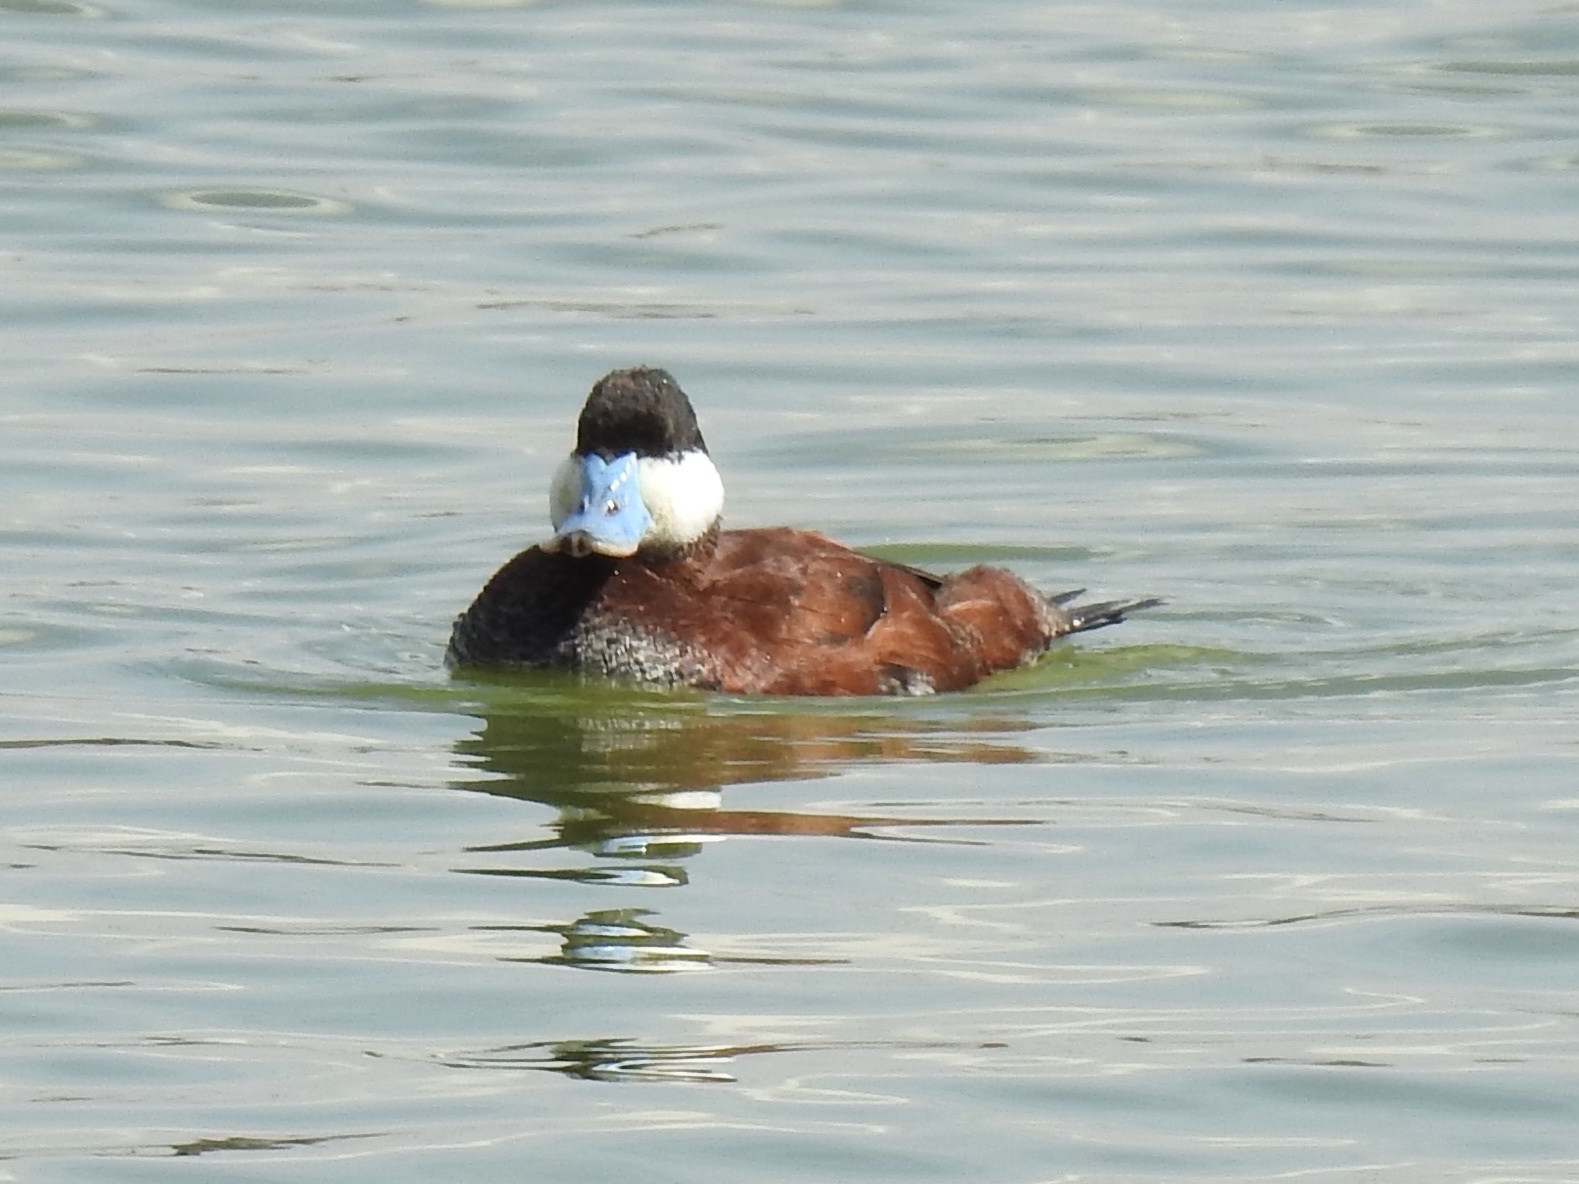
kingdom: Animalia
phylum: Chordata
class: Aves
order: Anseriformes
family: Anatidae
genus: Oxyura
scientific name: Oxyura jamaicensis
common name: Ruddy duck
